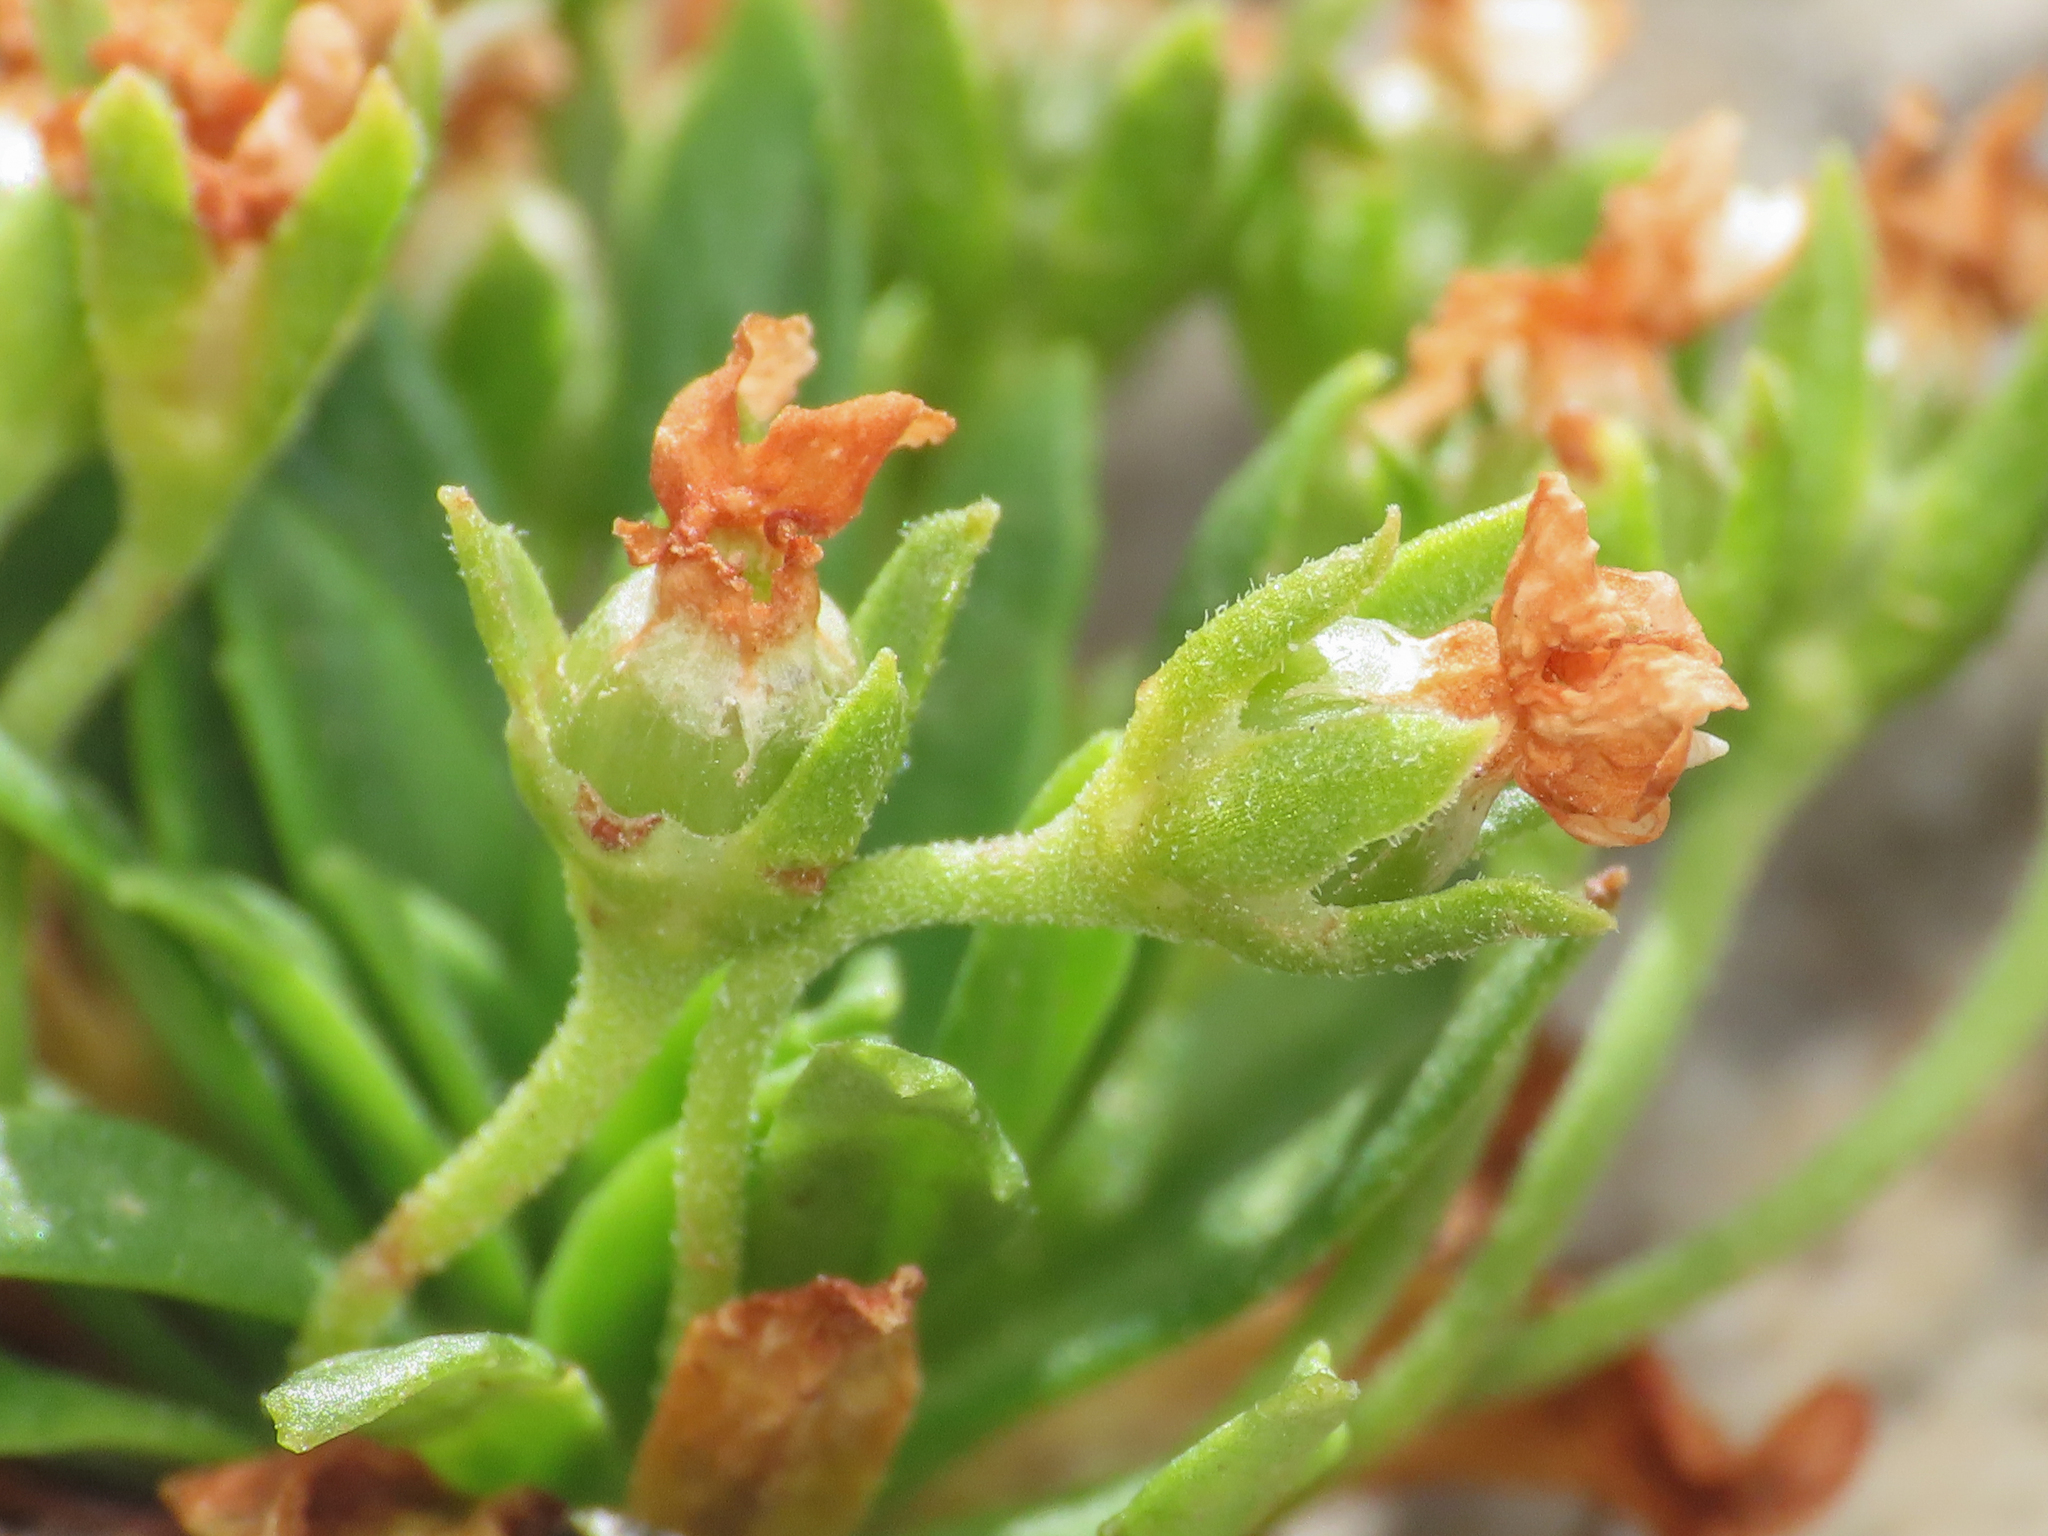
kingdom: Plantae
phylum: Tracheophyta
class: Magnoliopsida
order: Ericales
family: Primulaceae
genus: Androsace
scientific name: Androsace mathildae
